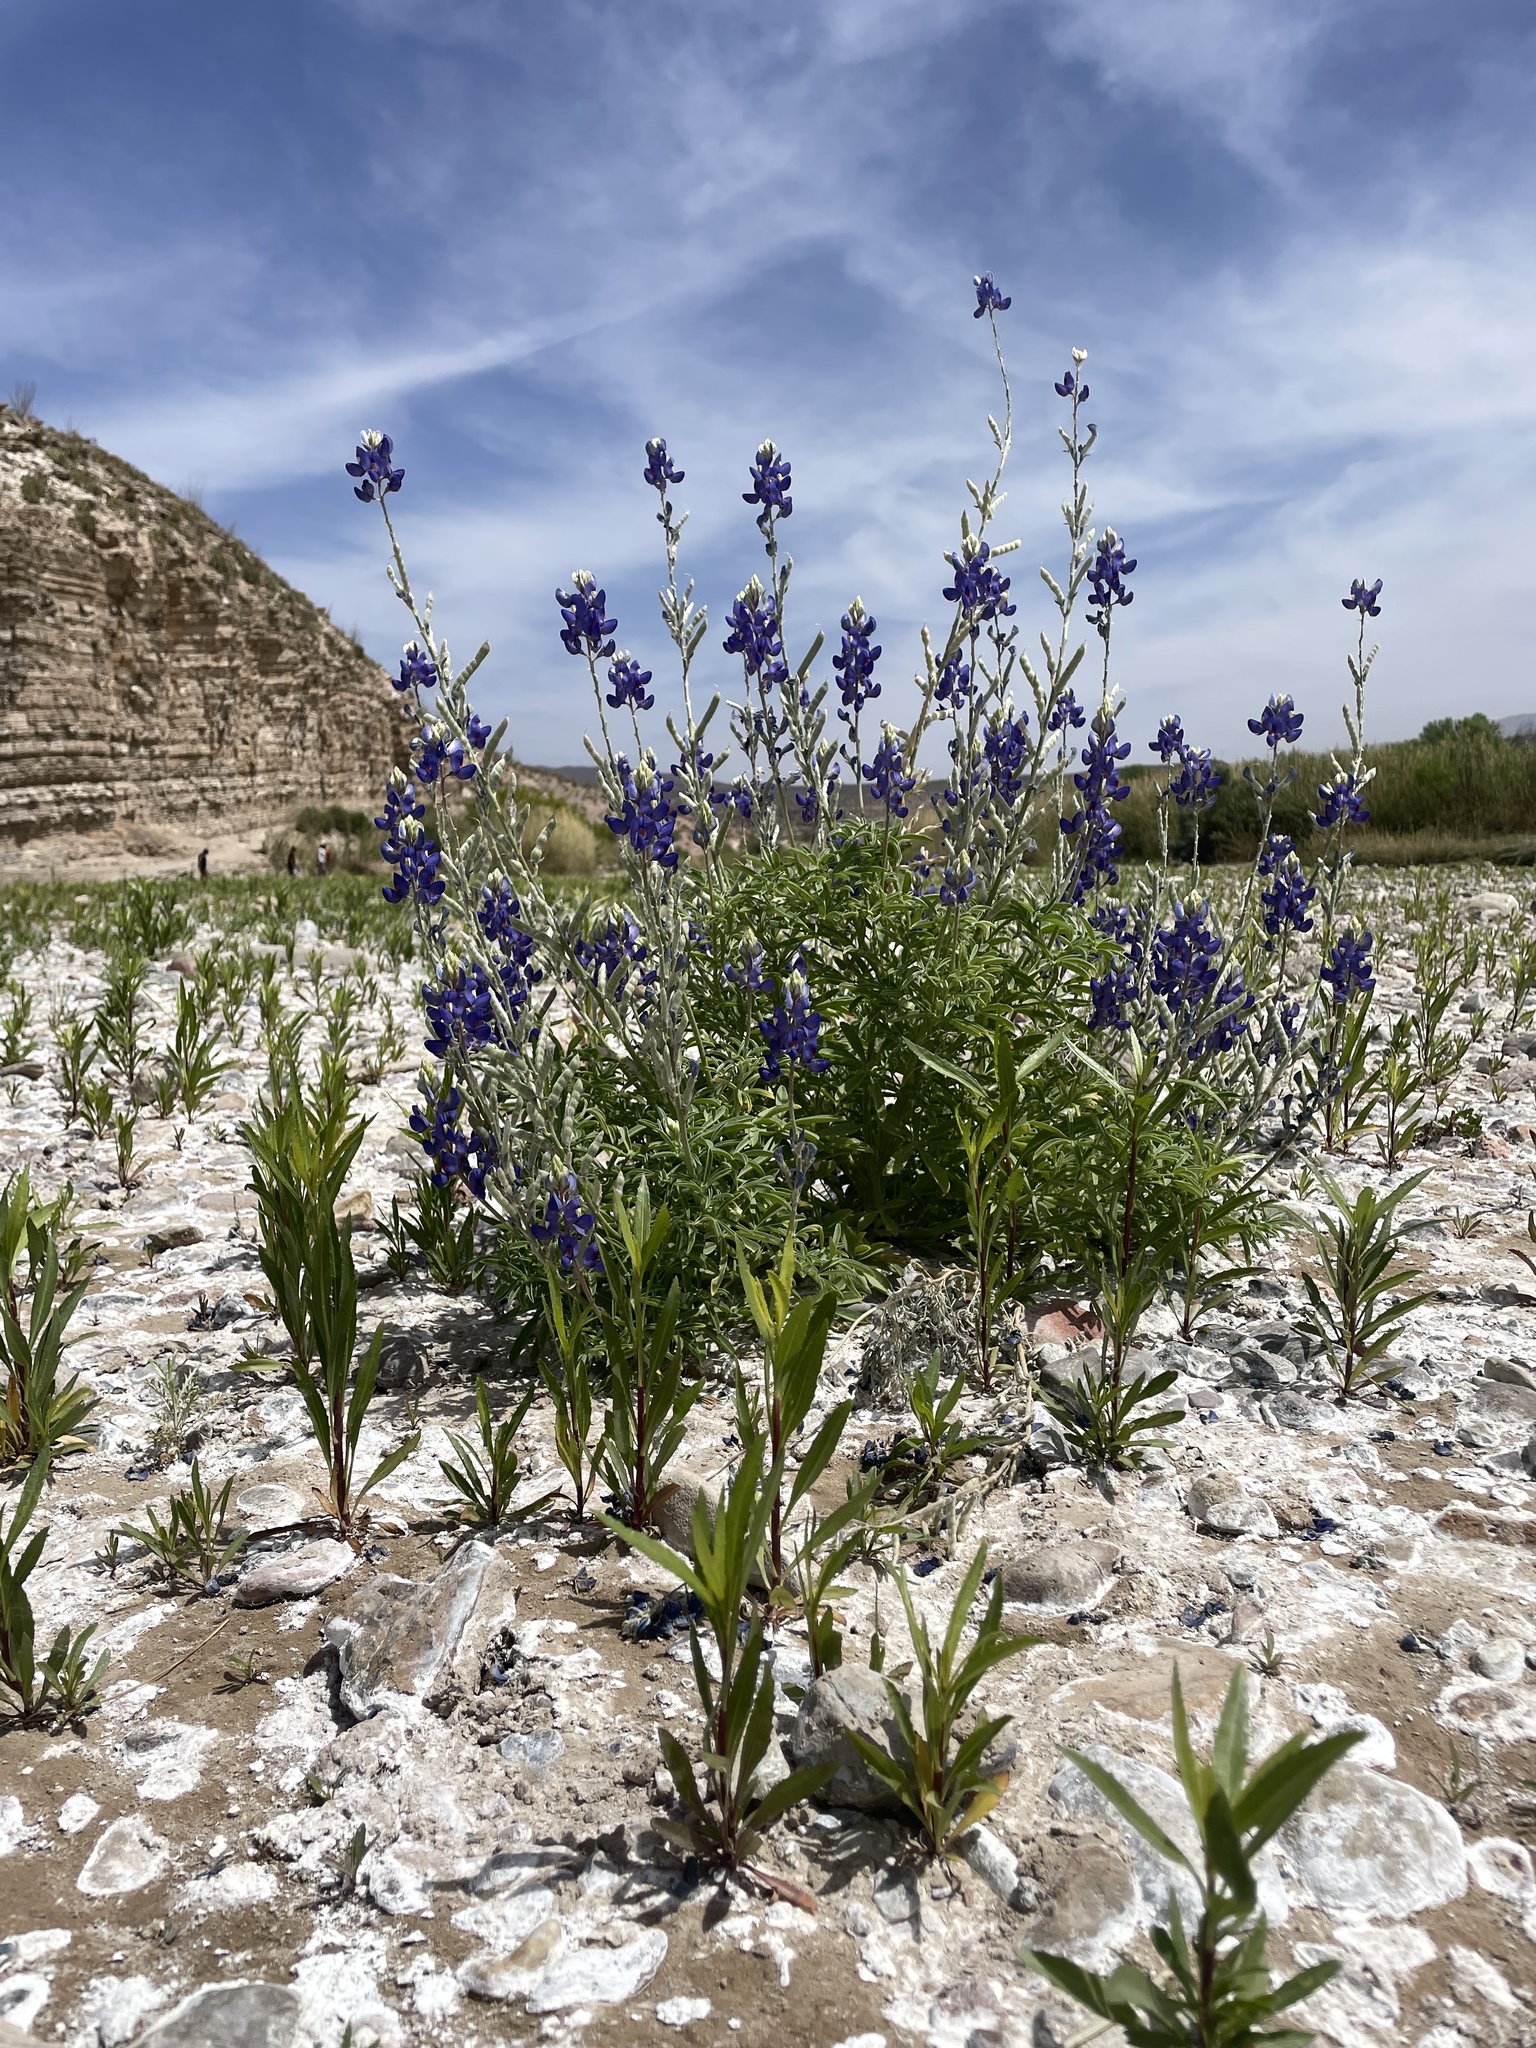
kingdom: Plantae
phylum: Tracheophyta
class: Magnoliopsida
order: Fabales
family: Fabaceae
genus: Lupinus
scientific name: Lupinus havardii
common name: Chisos bluebonnet
